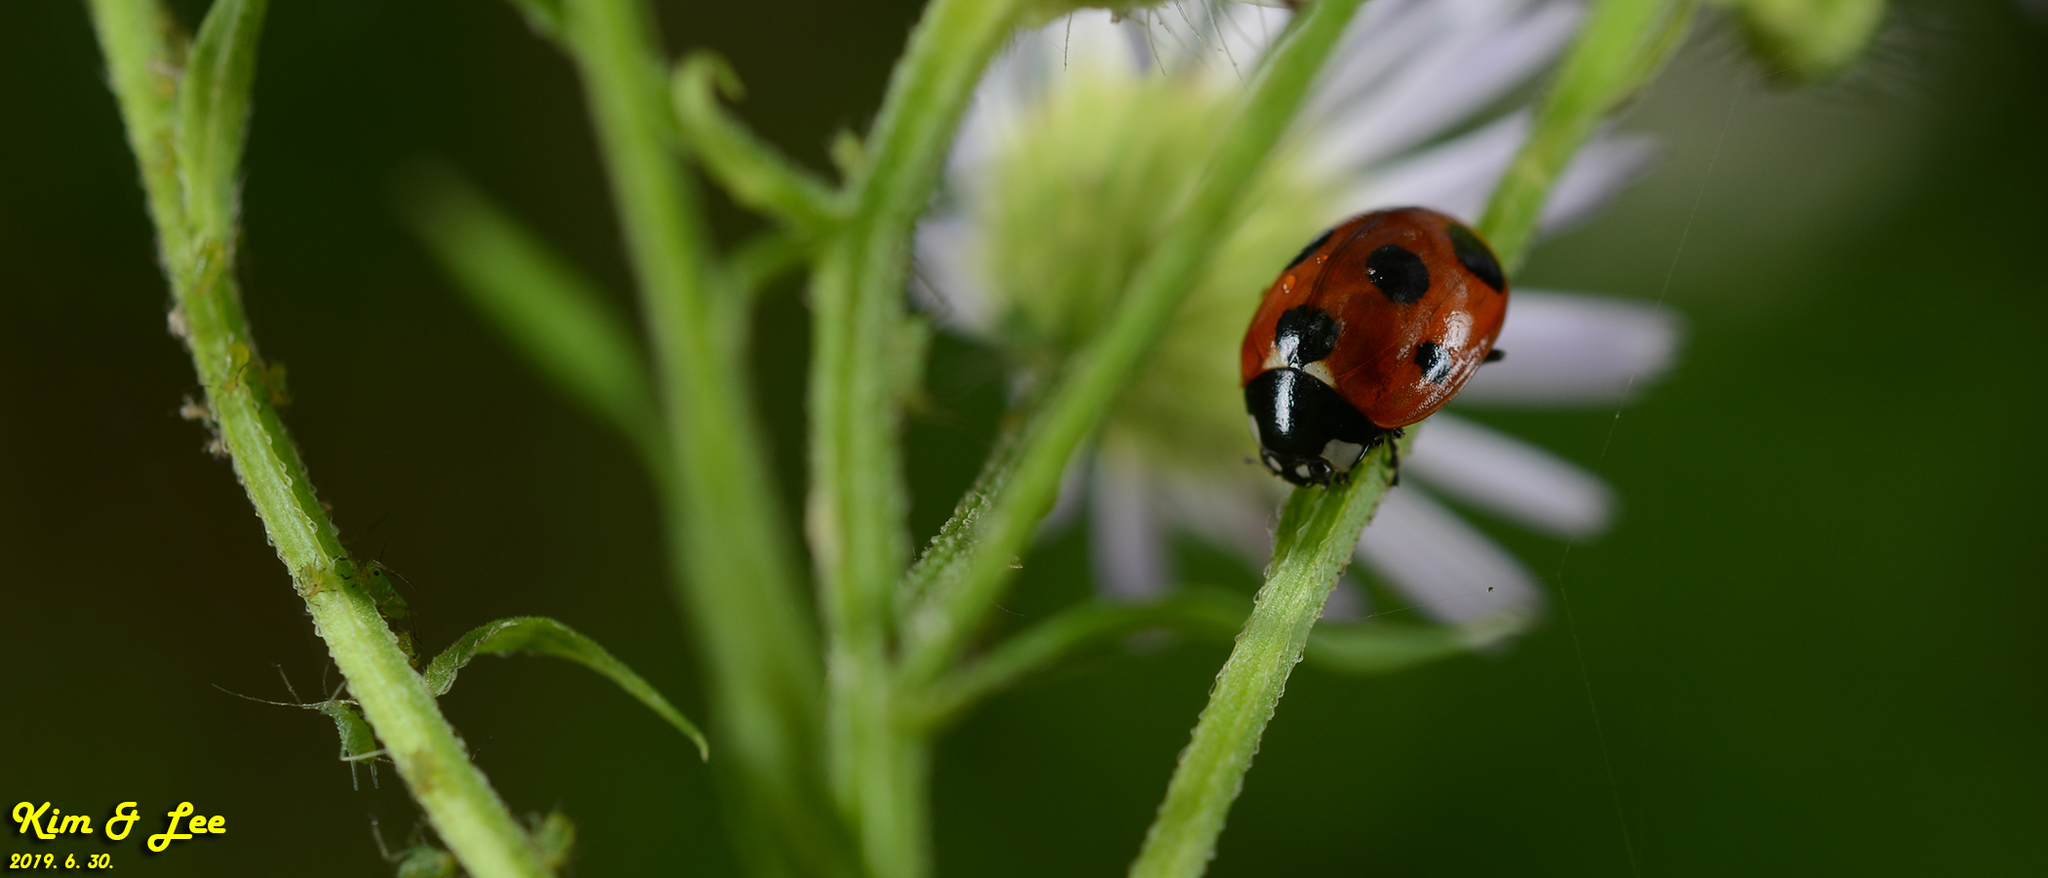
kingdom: Animalia
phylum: Arthropoda
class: Insecta
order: Coleoptera
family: Coccinellidae
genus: Coccinella
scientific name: Coccinella septempunctata
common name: Sevenspotted lady beetle
